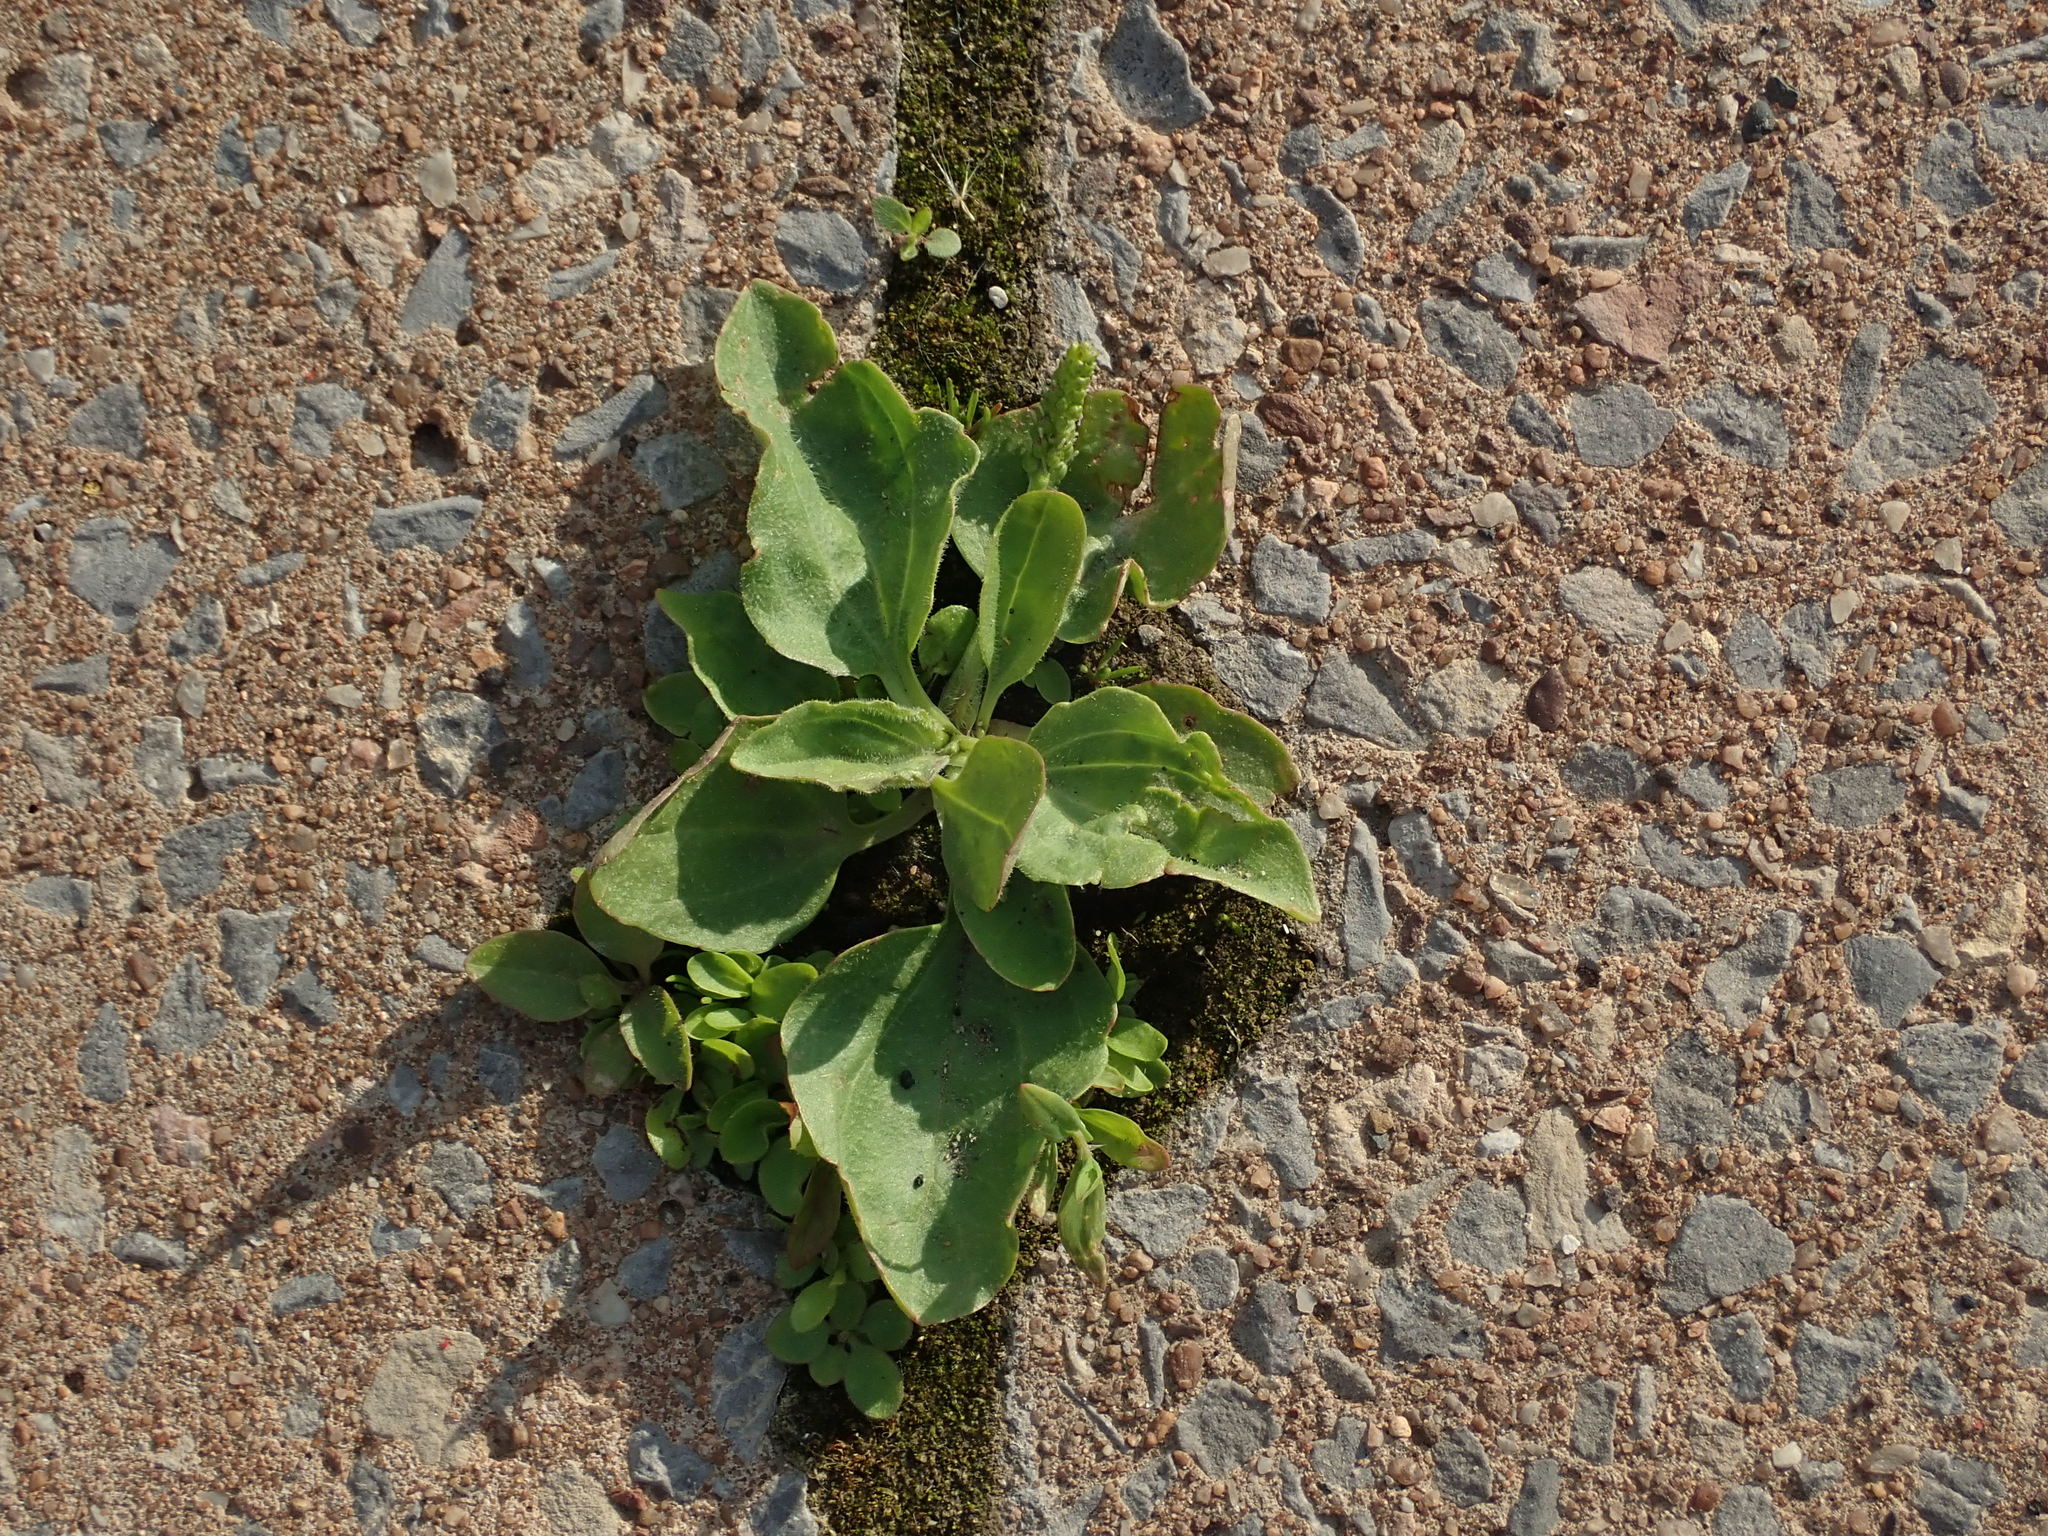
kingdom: Plantae
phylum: Tracheophyta
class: Magnoliopsida
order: Lamiales
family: Plantaginaceae
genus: Plantago
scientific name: Plantago major
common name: Common plantain
